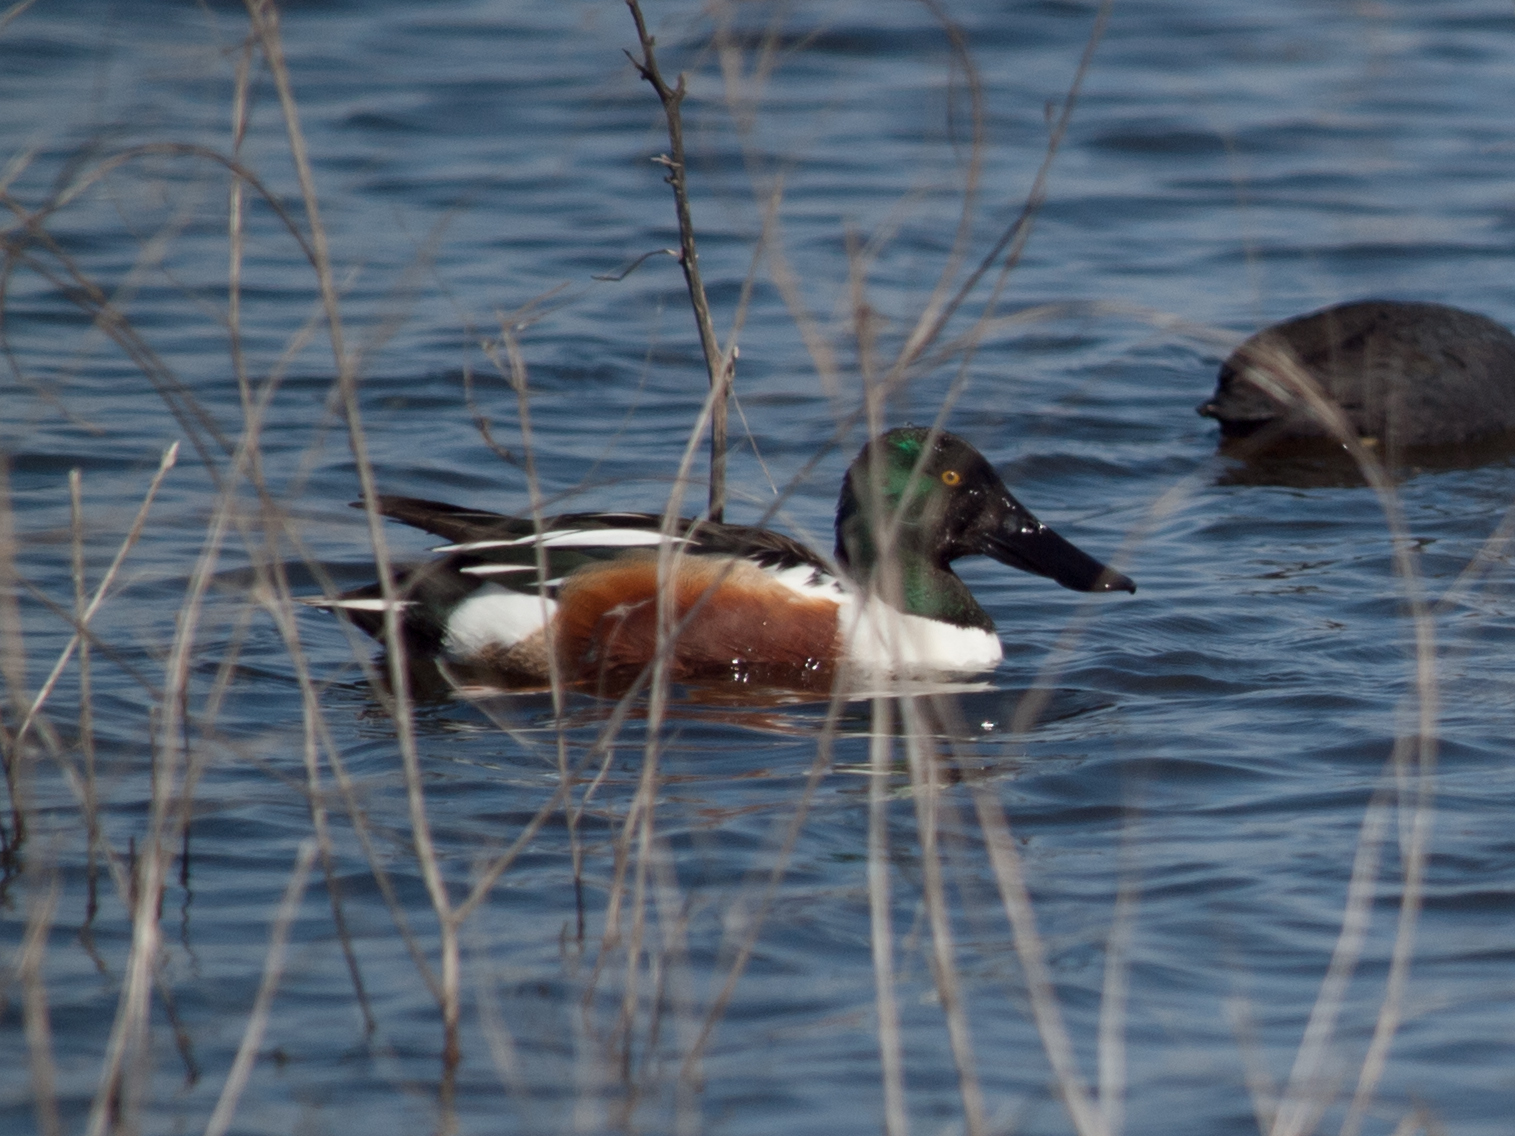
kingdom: Animalia
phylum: Chordata
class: Aves
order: Anseriformes
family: Anatidae
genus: Spatula
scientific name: Spatula clypeata
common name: Northern shoveler
